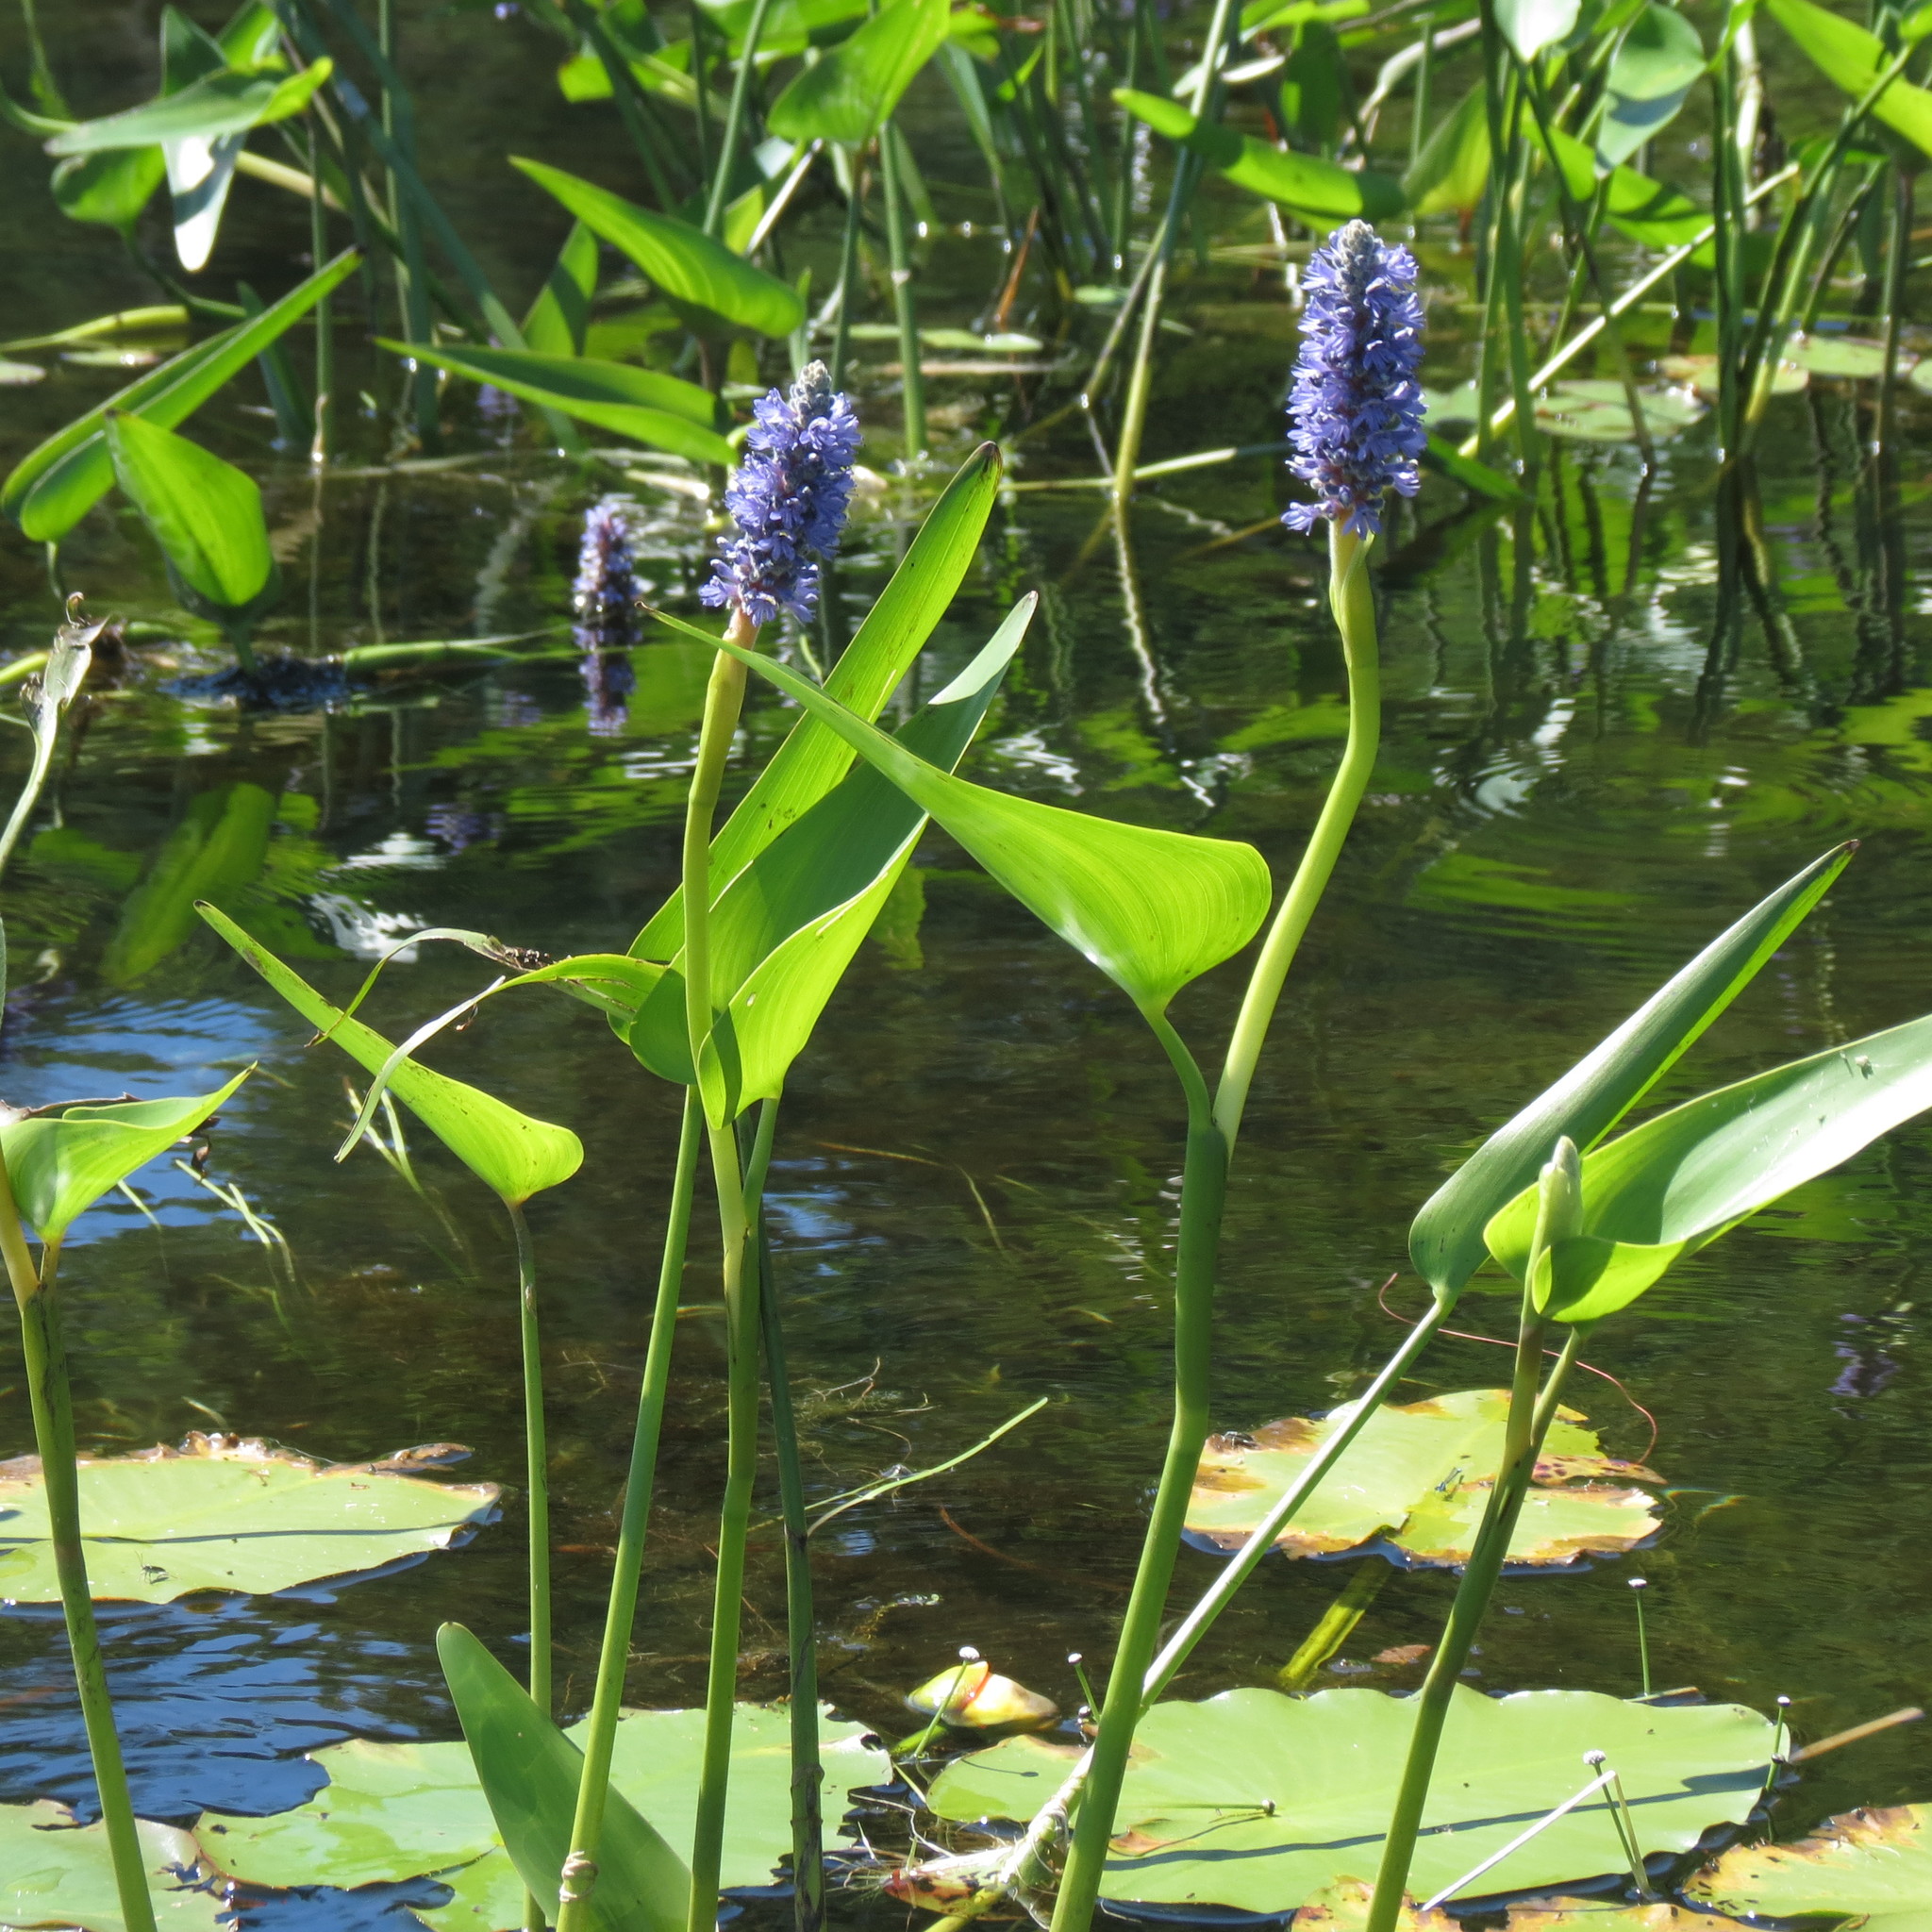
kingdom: Plantae
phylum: Tracheophyta
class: Liliopsida
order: Commelinales
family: Pontederiaceae
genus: Pontederia
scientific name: Pontederia cordata
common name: Pickerelweed
